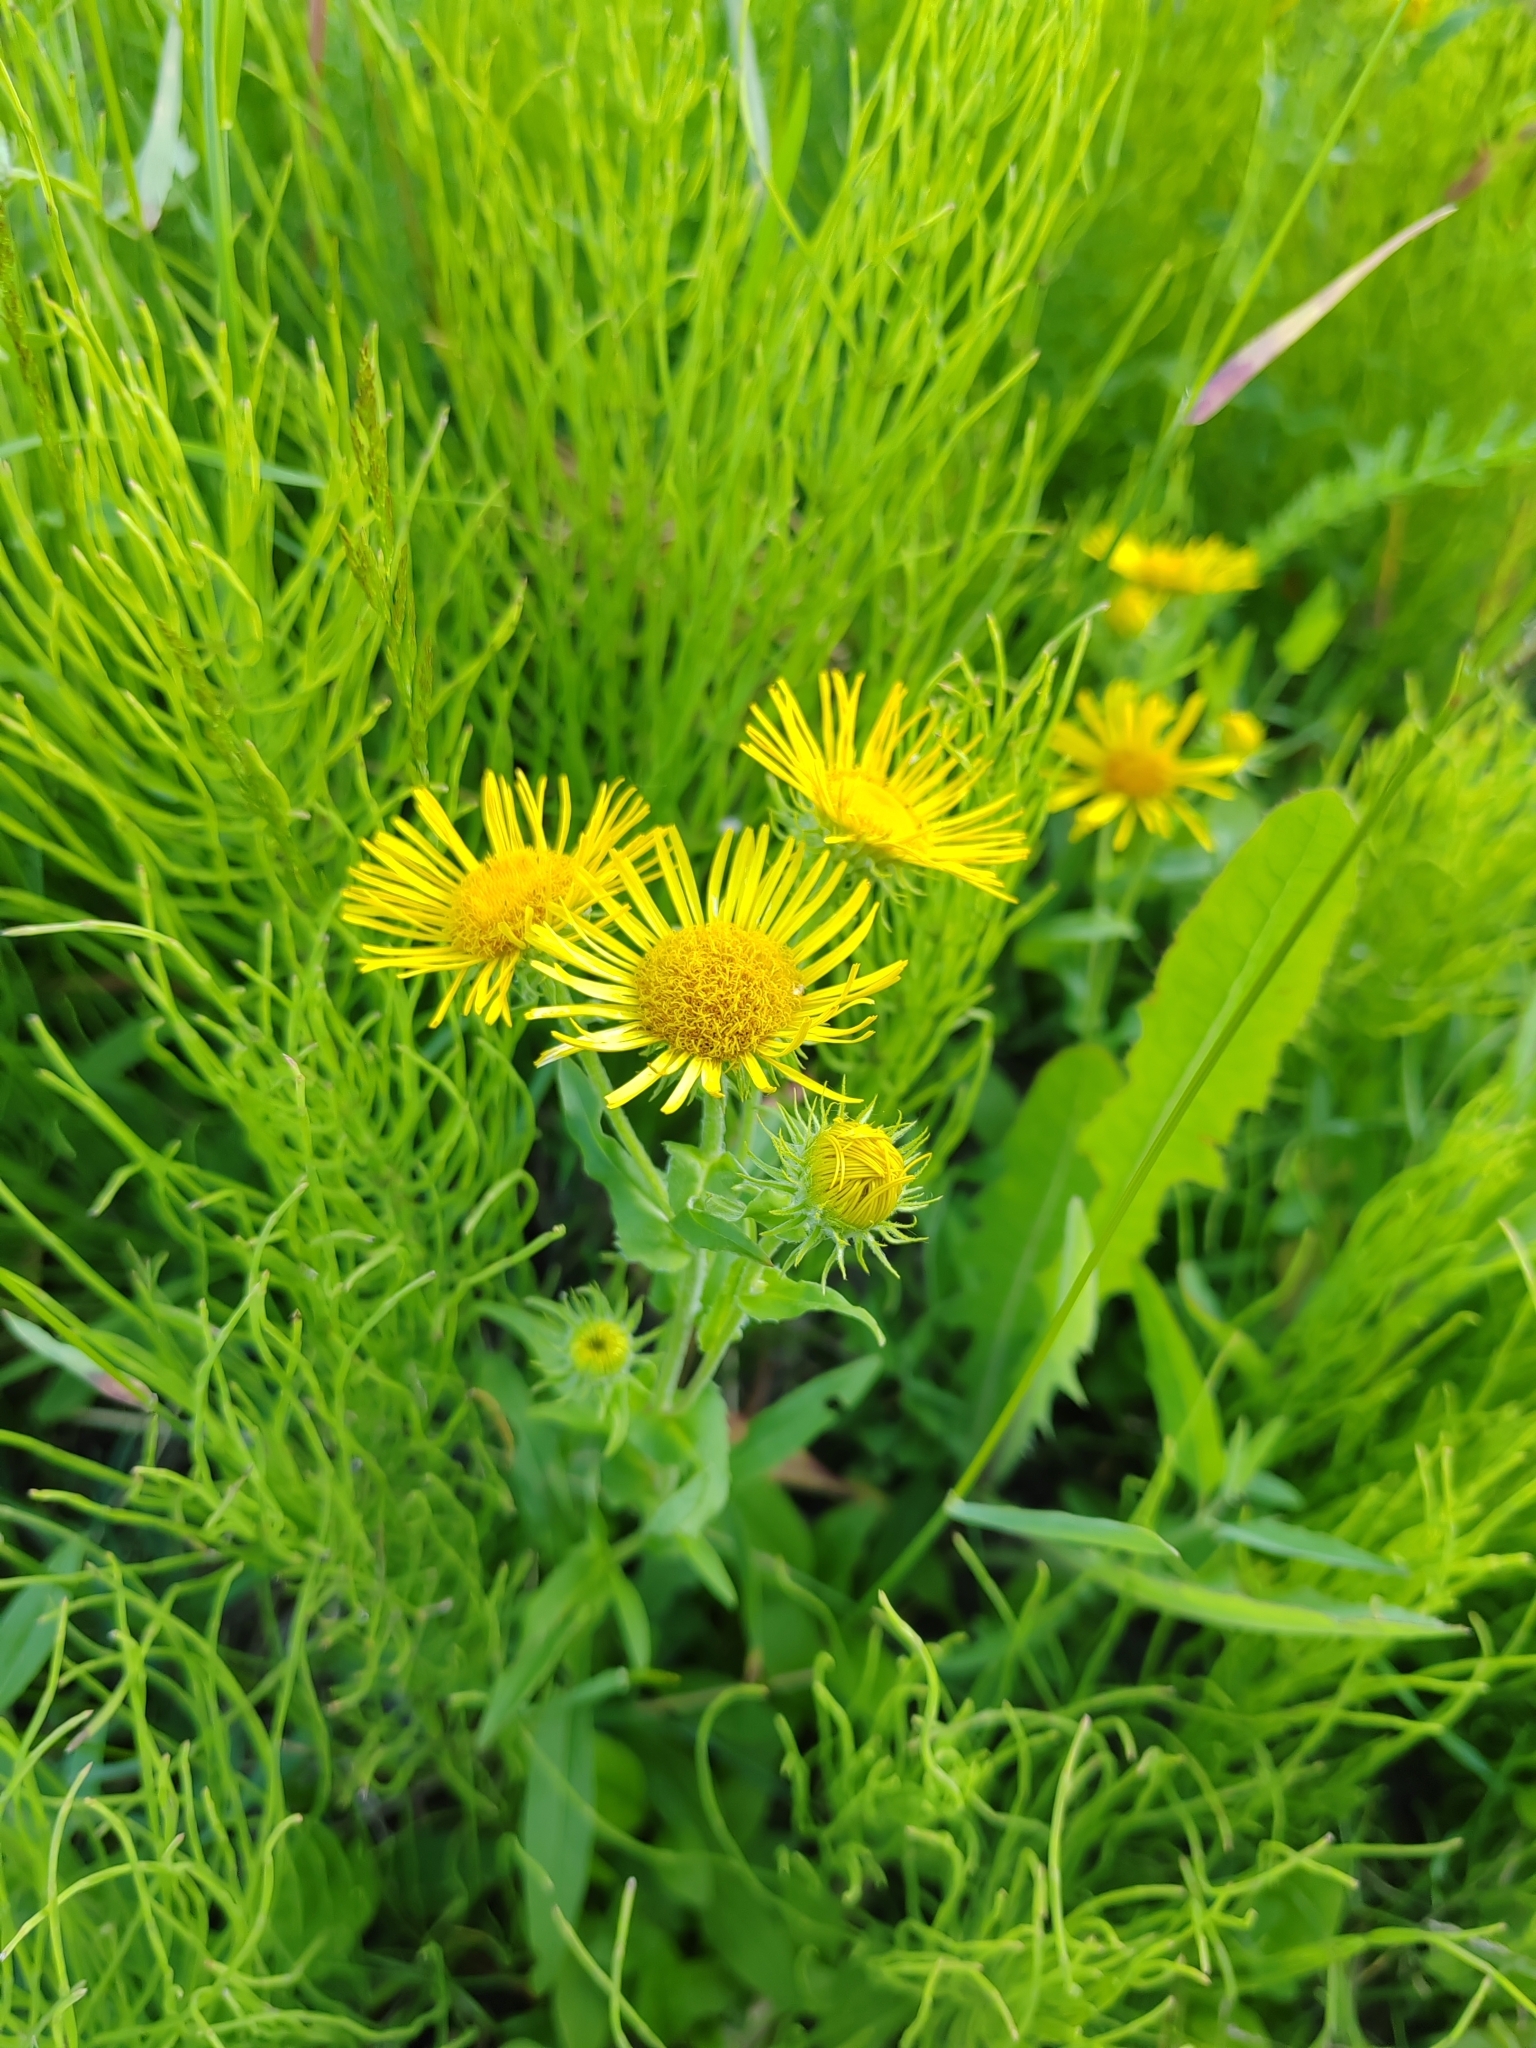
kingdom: Plantae
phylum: Tracheophyta
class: Magnoliopsida
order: Asterales
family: Asteraceae
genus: Pentanema
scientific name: Pentanema britannicum
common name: British elecampane
